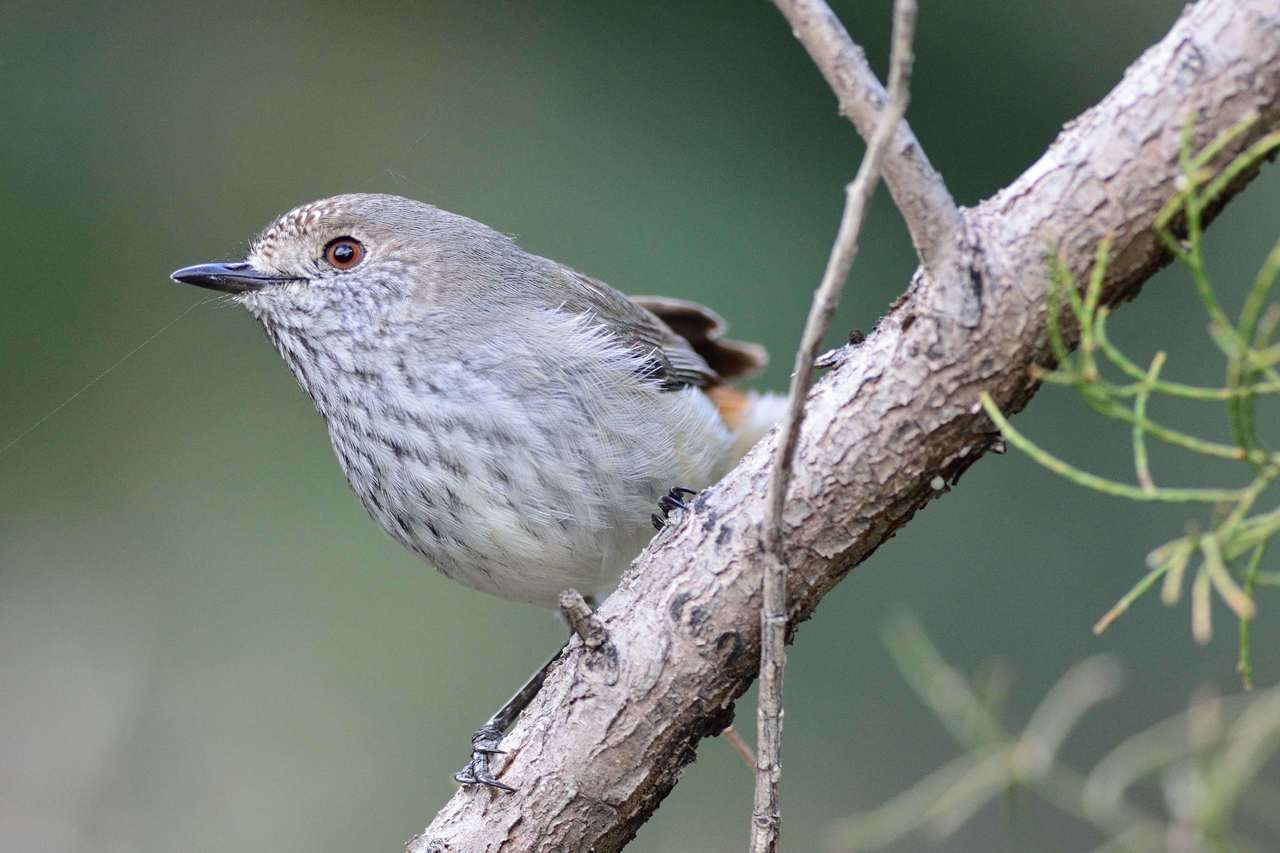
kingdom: Animalia
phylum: Chordata
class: Aves
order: Passeriformes
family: Acanthizidae
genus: Acanthiza
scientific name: Acanthiza apicalis
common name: Inland thornbill
